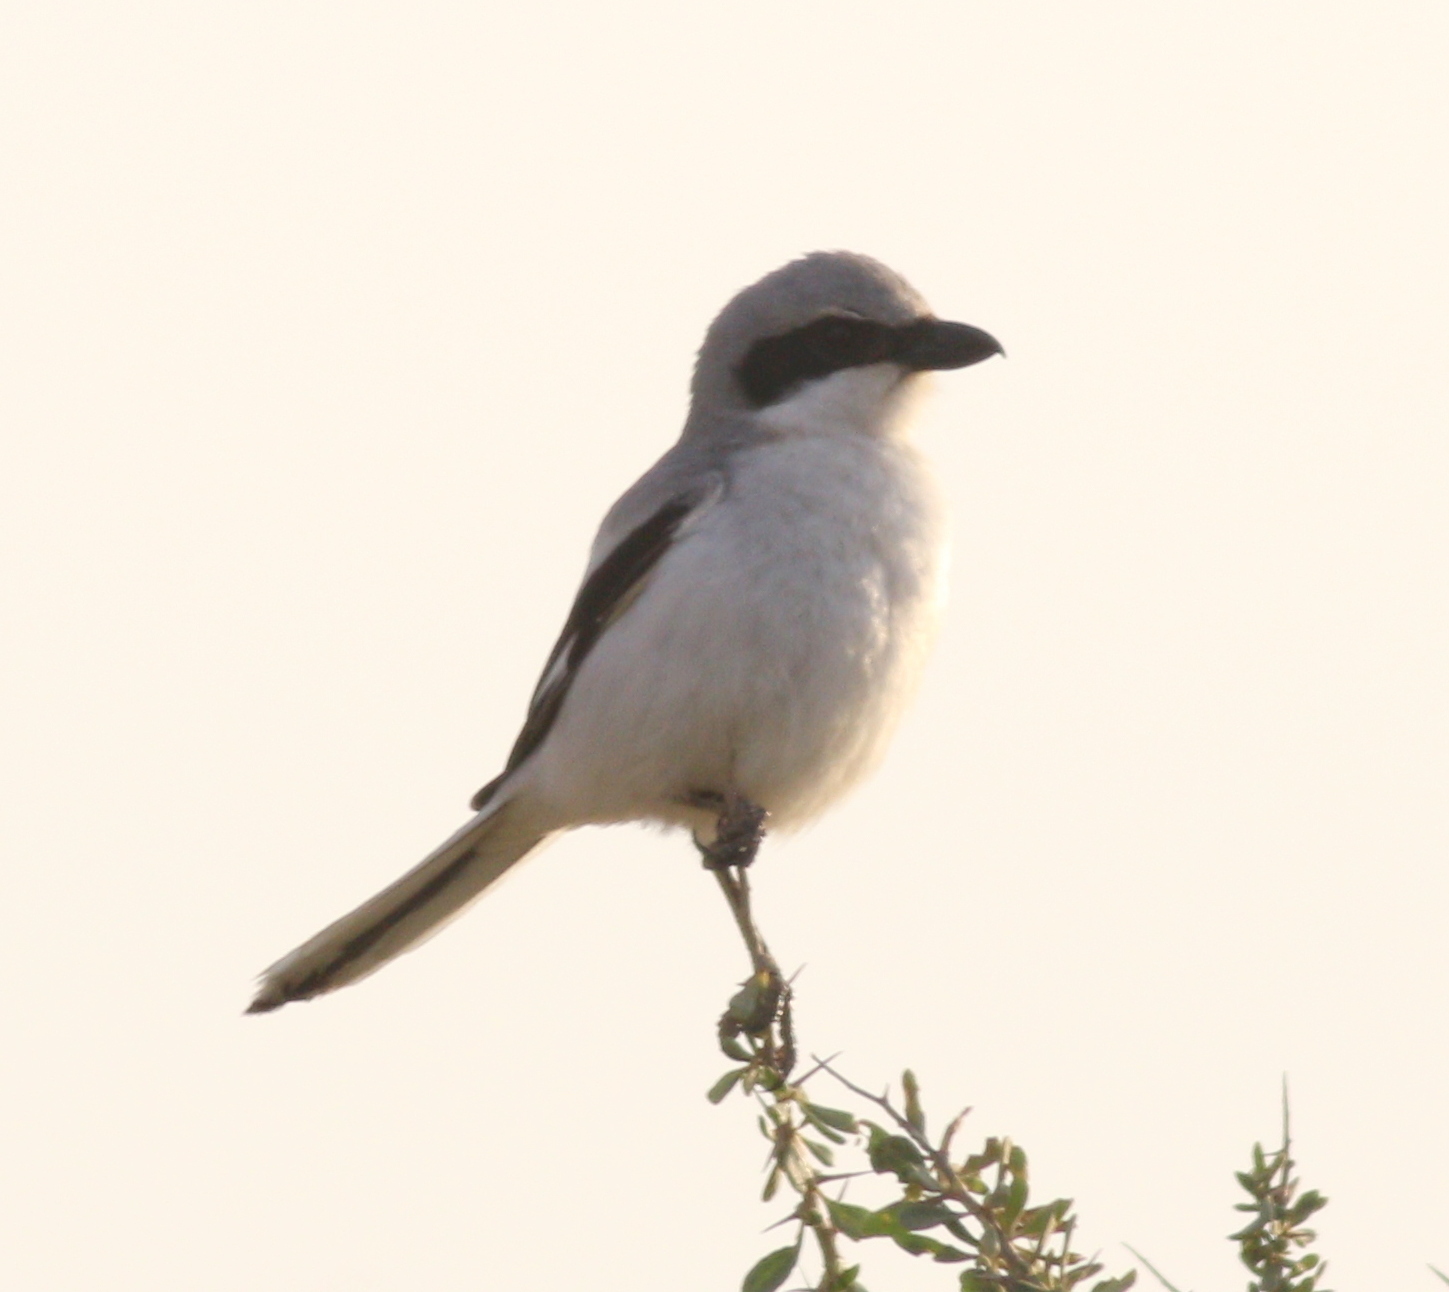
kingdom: Animalia
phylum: Chordata
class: Aves
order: Passeriformes
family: Laniidae
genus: Lanius
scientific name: Lanius excubitor
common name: Great grey shrike
